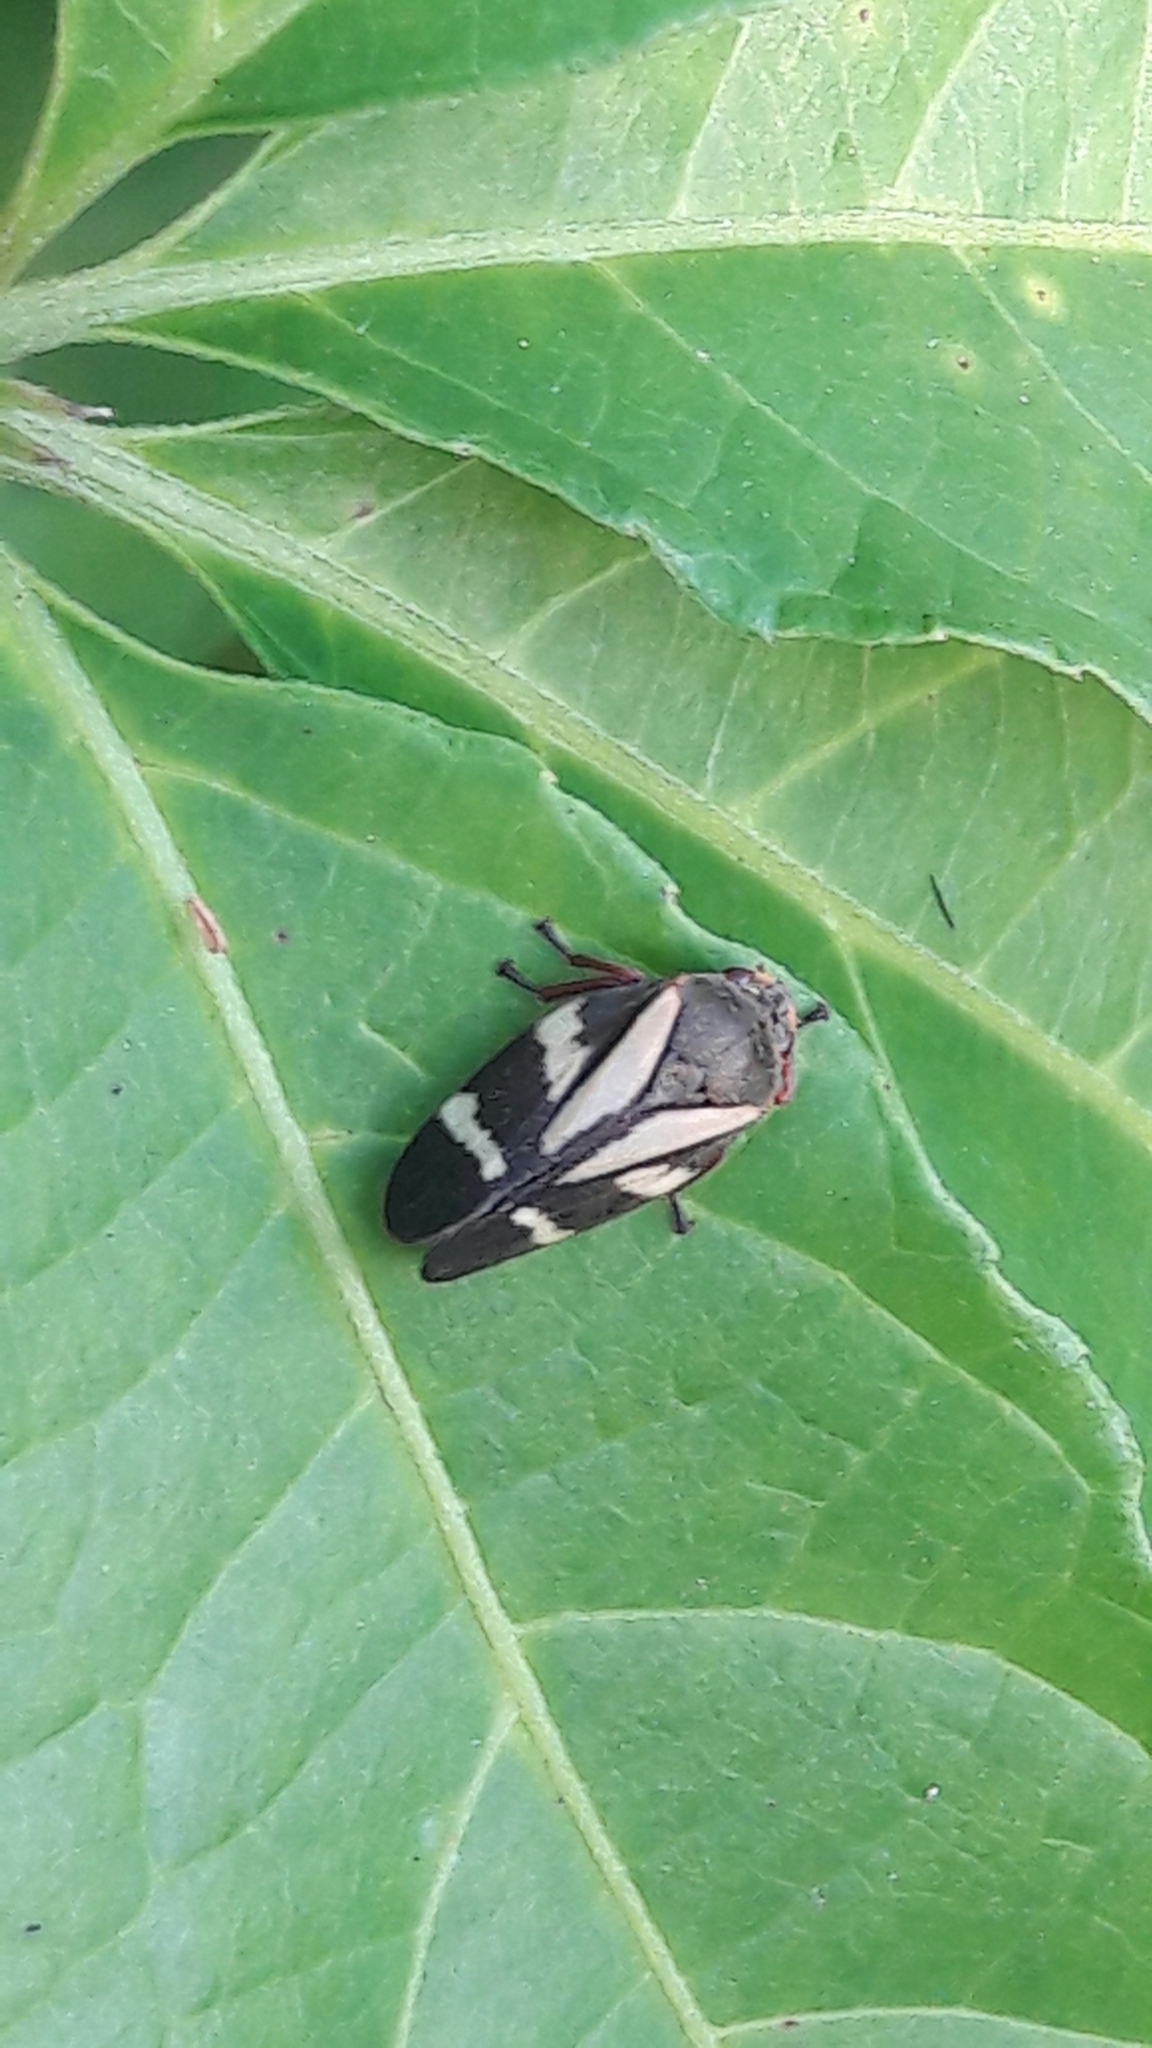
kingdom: Animalia
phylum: Arthropoda
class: Insecta
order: Hemiptera
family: Cercopidae
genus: Deois
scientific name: Deois flavopicta
